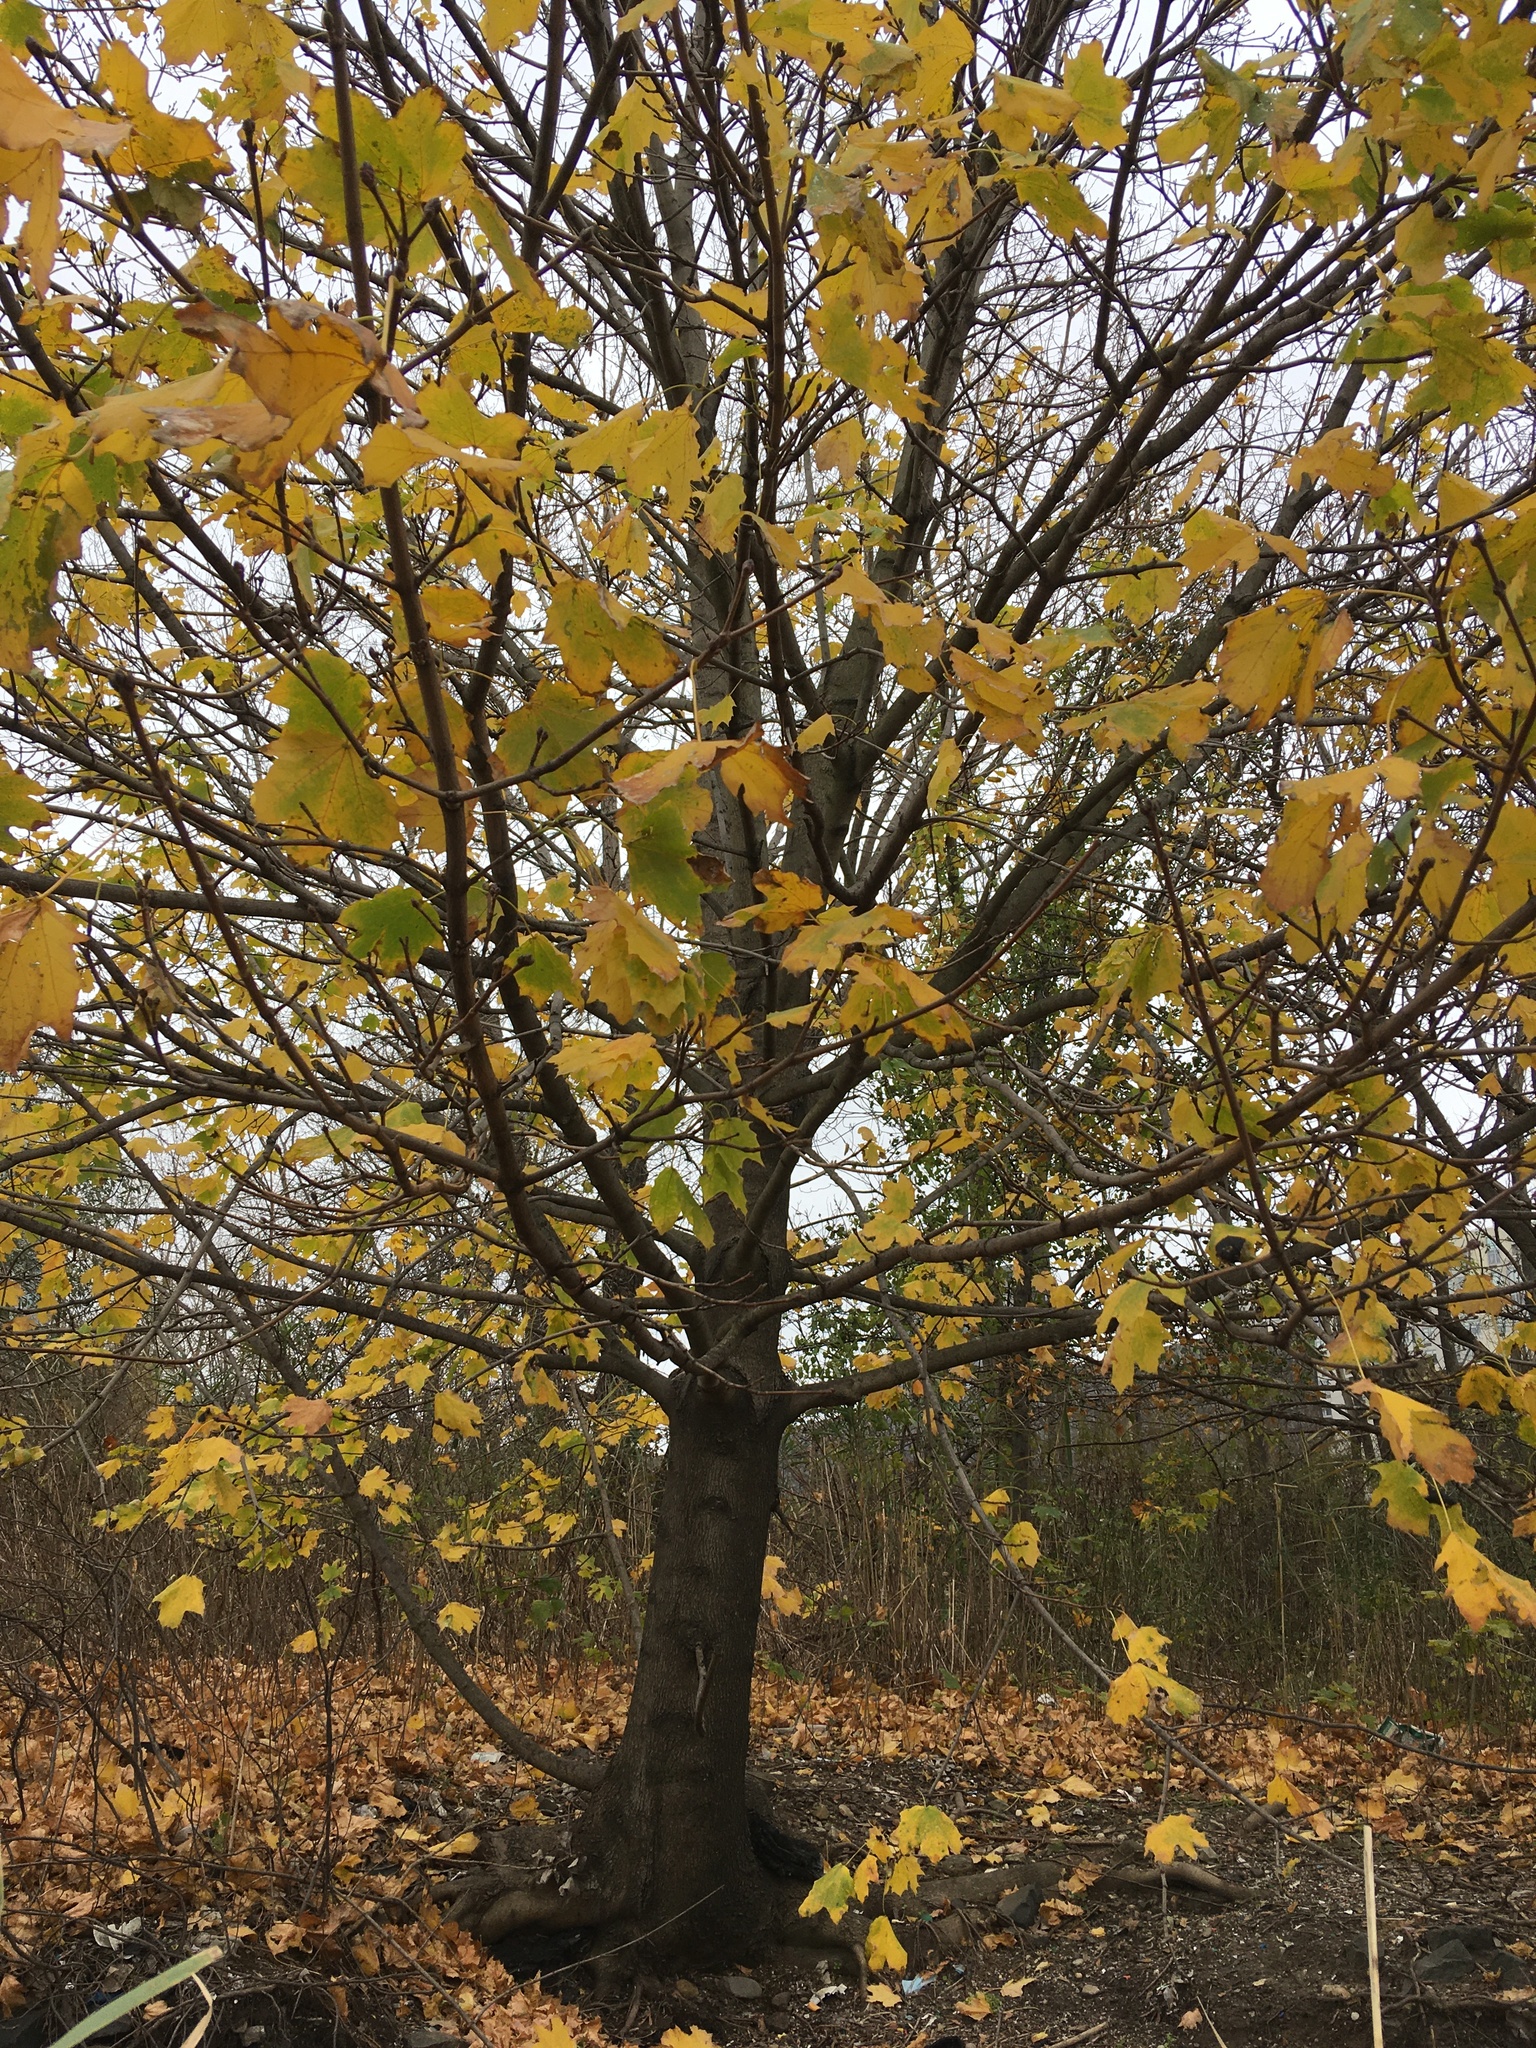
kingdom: Plantae
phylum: Tracheophyta
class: Magnoliopsida
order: Sapindales
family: Sapindaceae
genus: Acer
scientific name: Acer platanoides
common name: Norway maple
